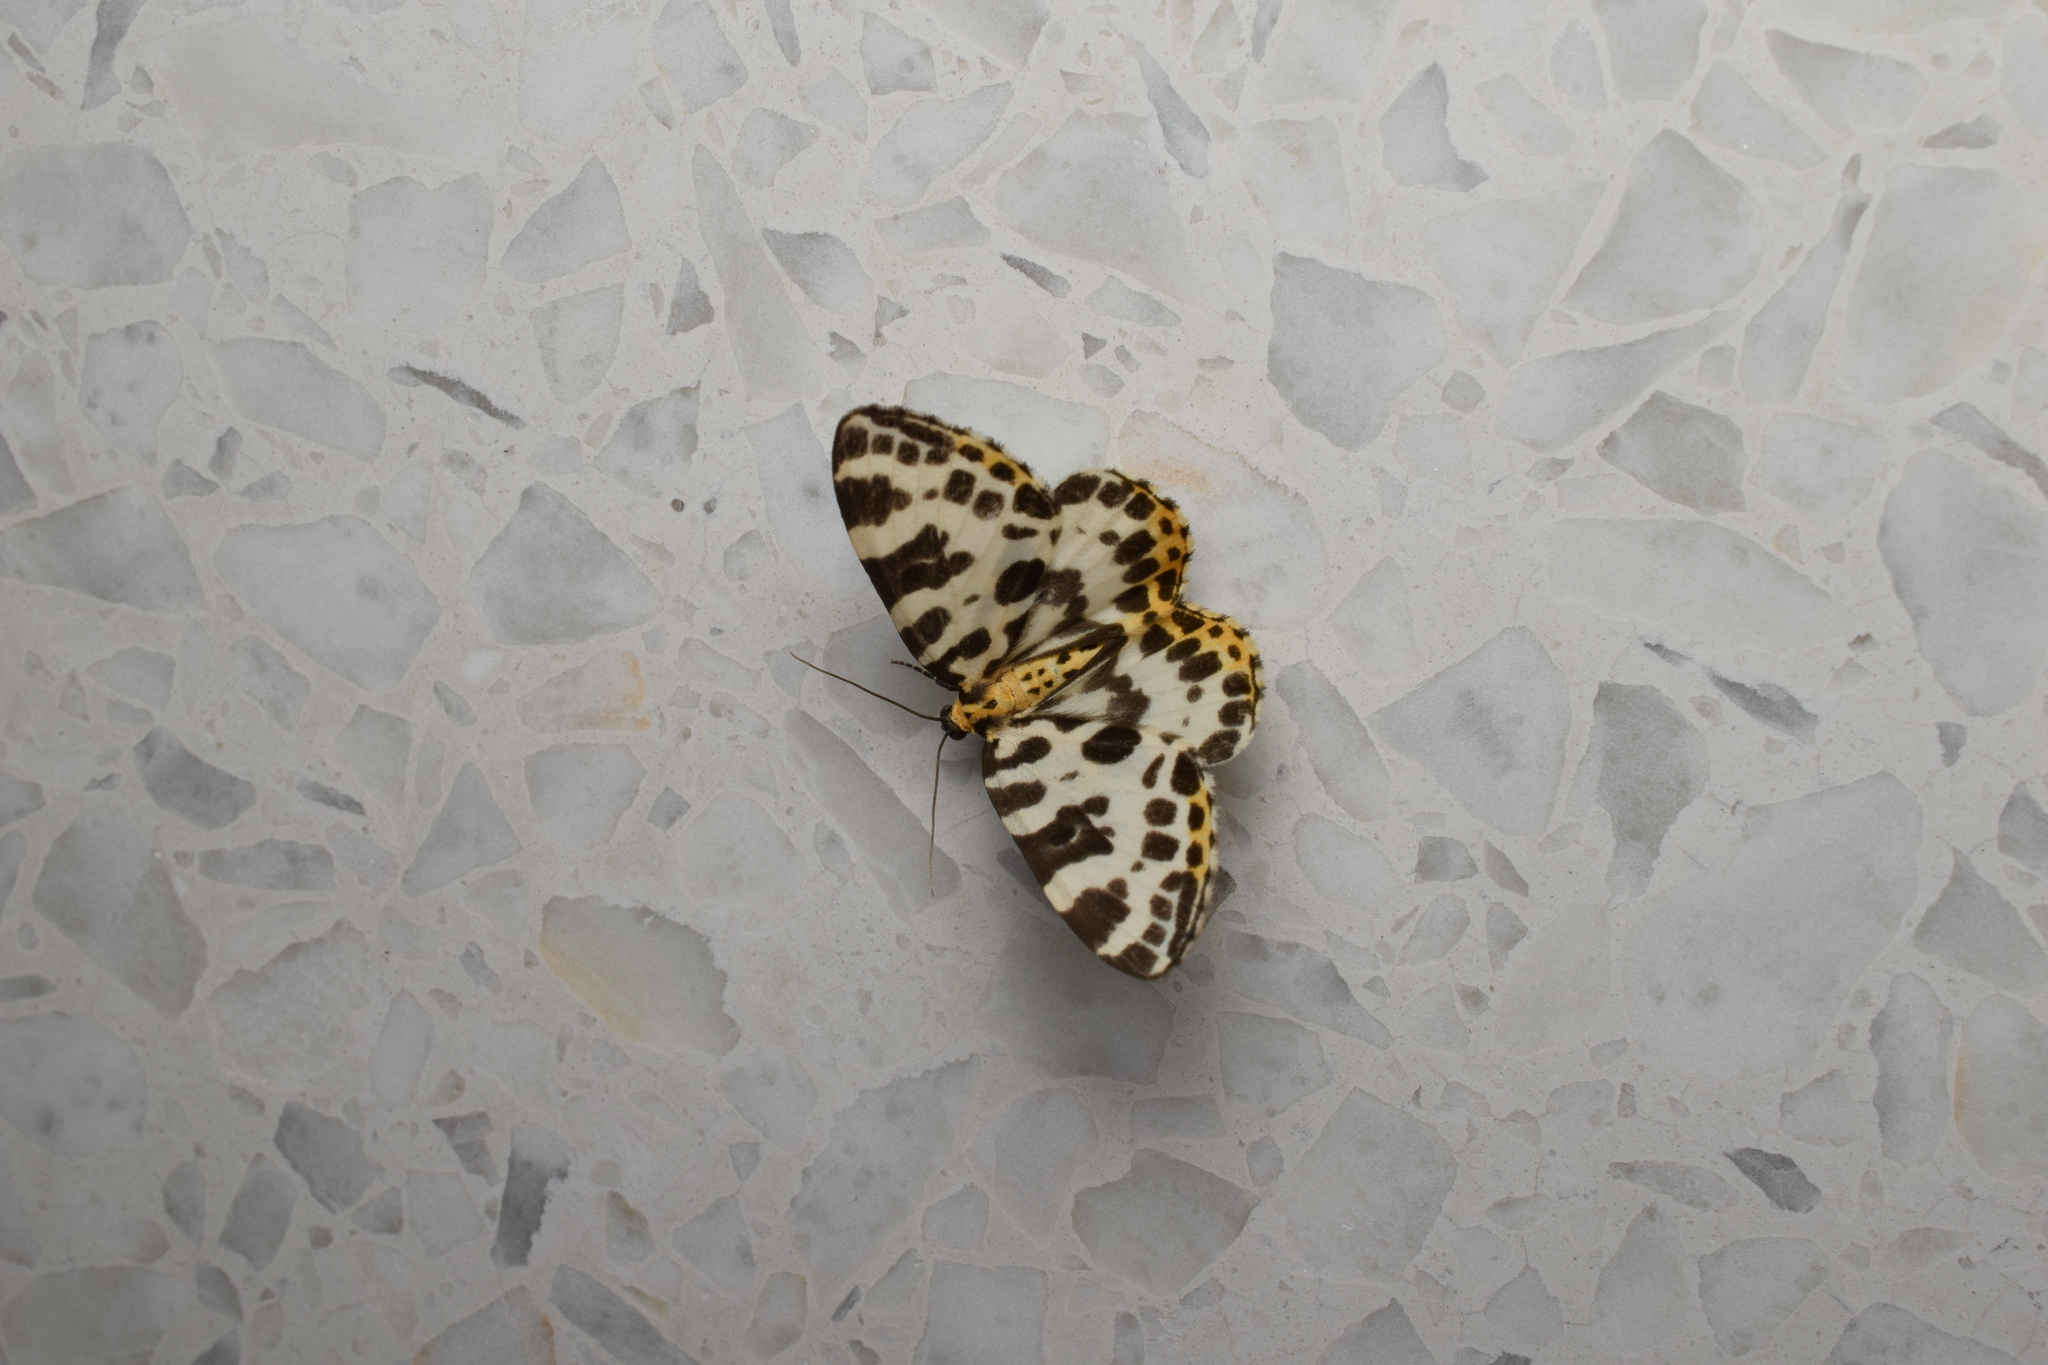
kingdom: Animalia
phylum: Arthropoda
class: Insecta
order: Lepidoptera
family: Geometridae
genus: Calleulype
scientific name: Calleulype whitelyi
